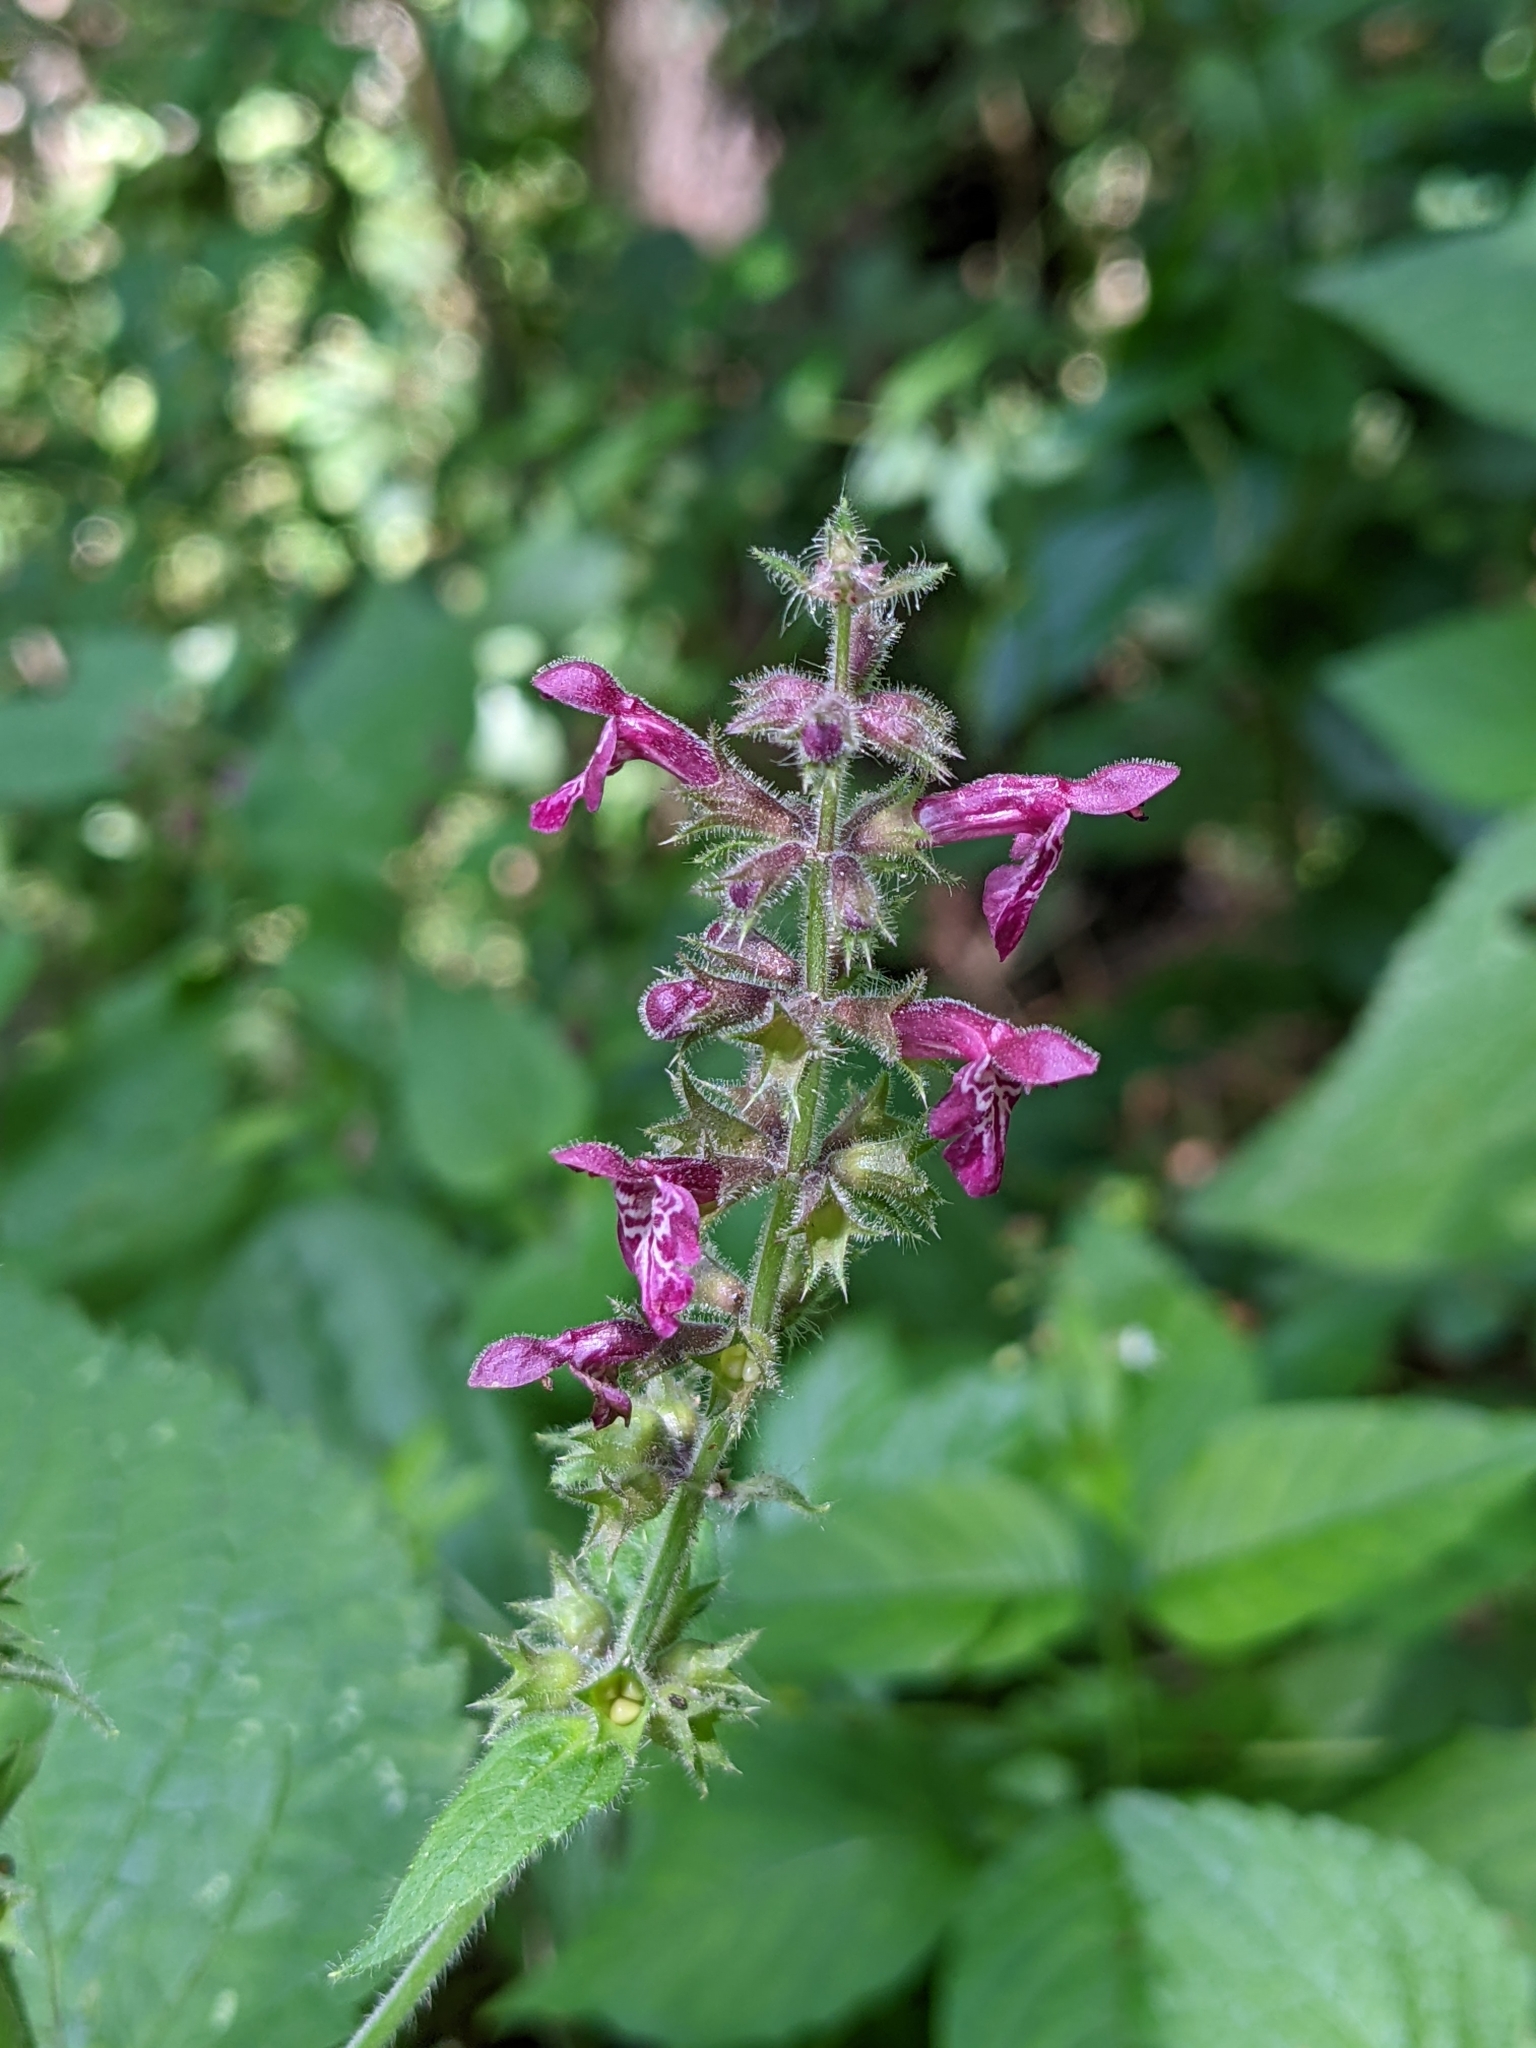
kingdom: Plantae
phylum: Tracheophyta
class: Magnoliopsida
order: Lamiales
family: Lamiaceae
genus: Stachys
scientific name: Stachys sylvatica
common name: Hedge woundwort
